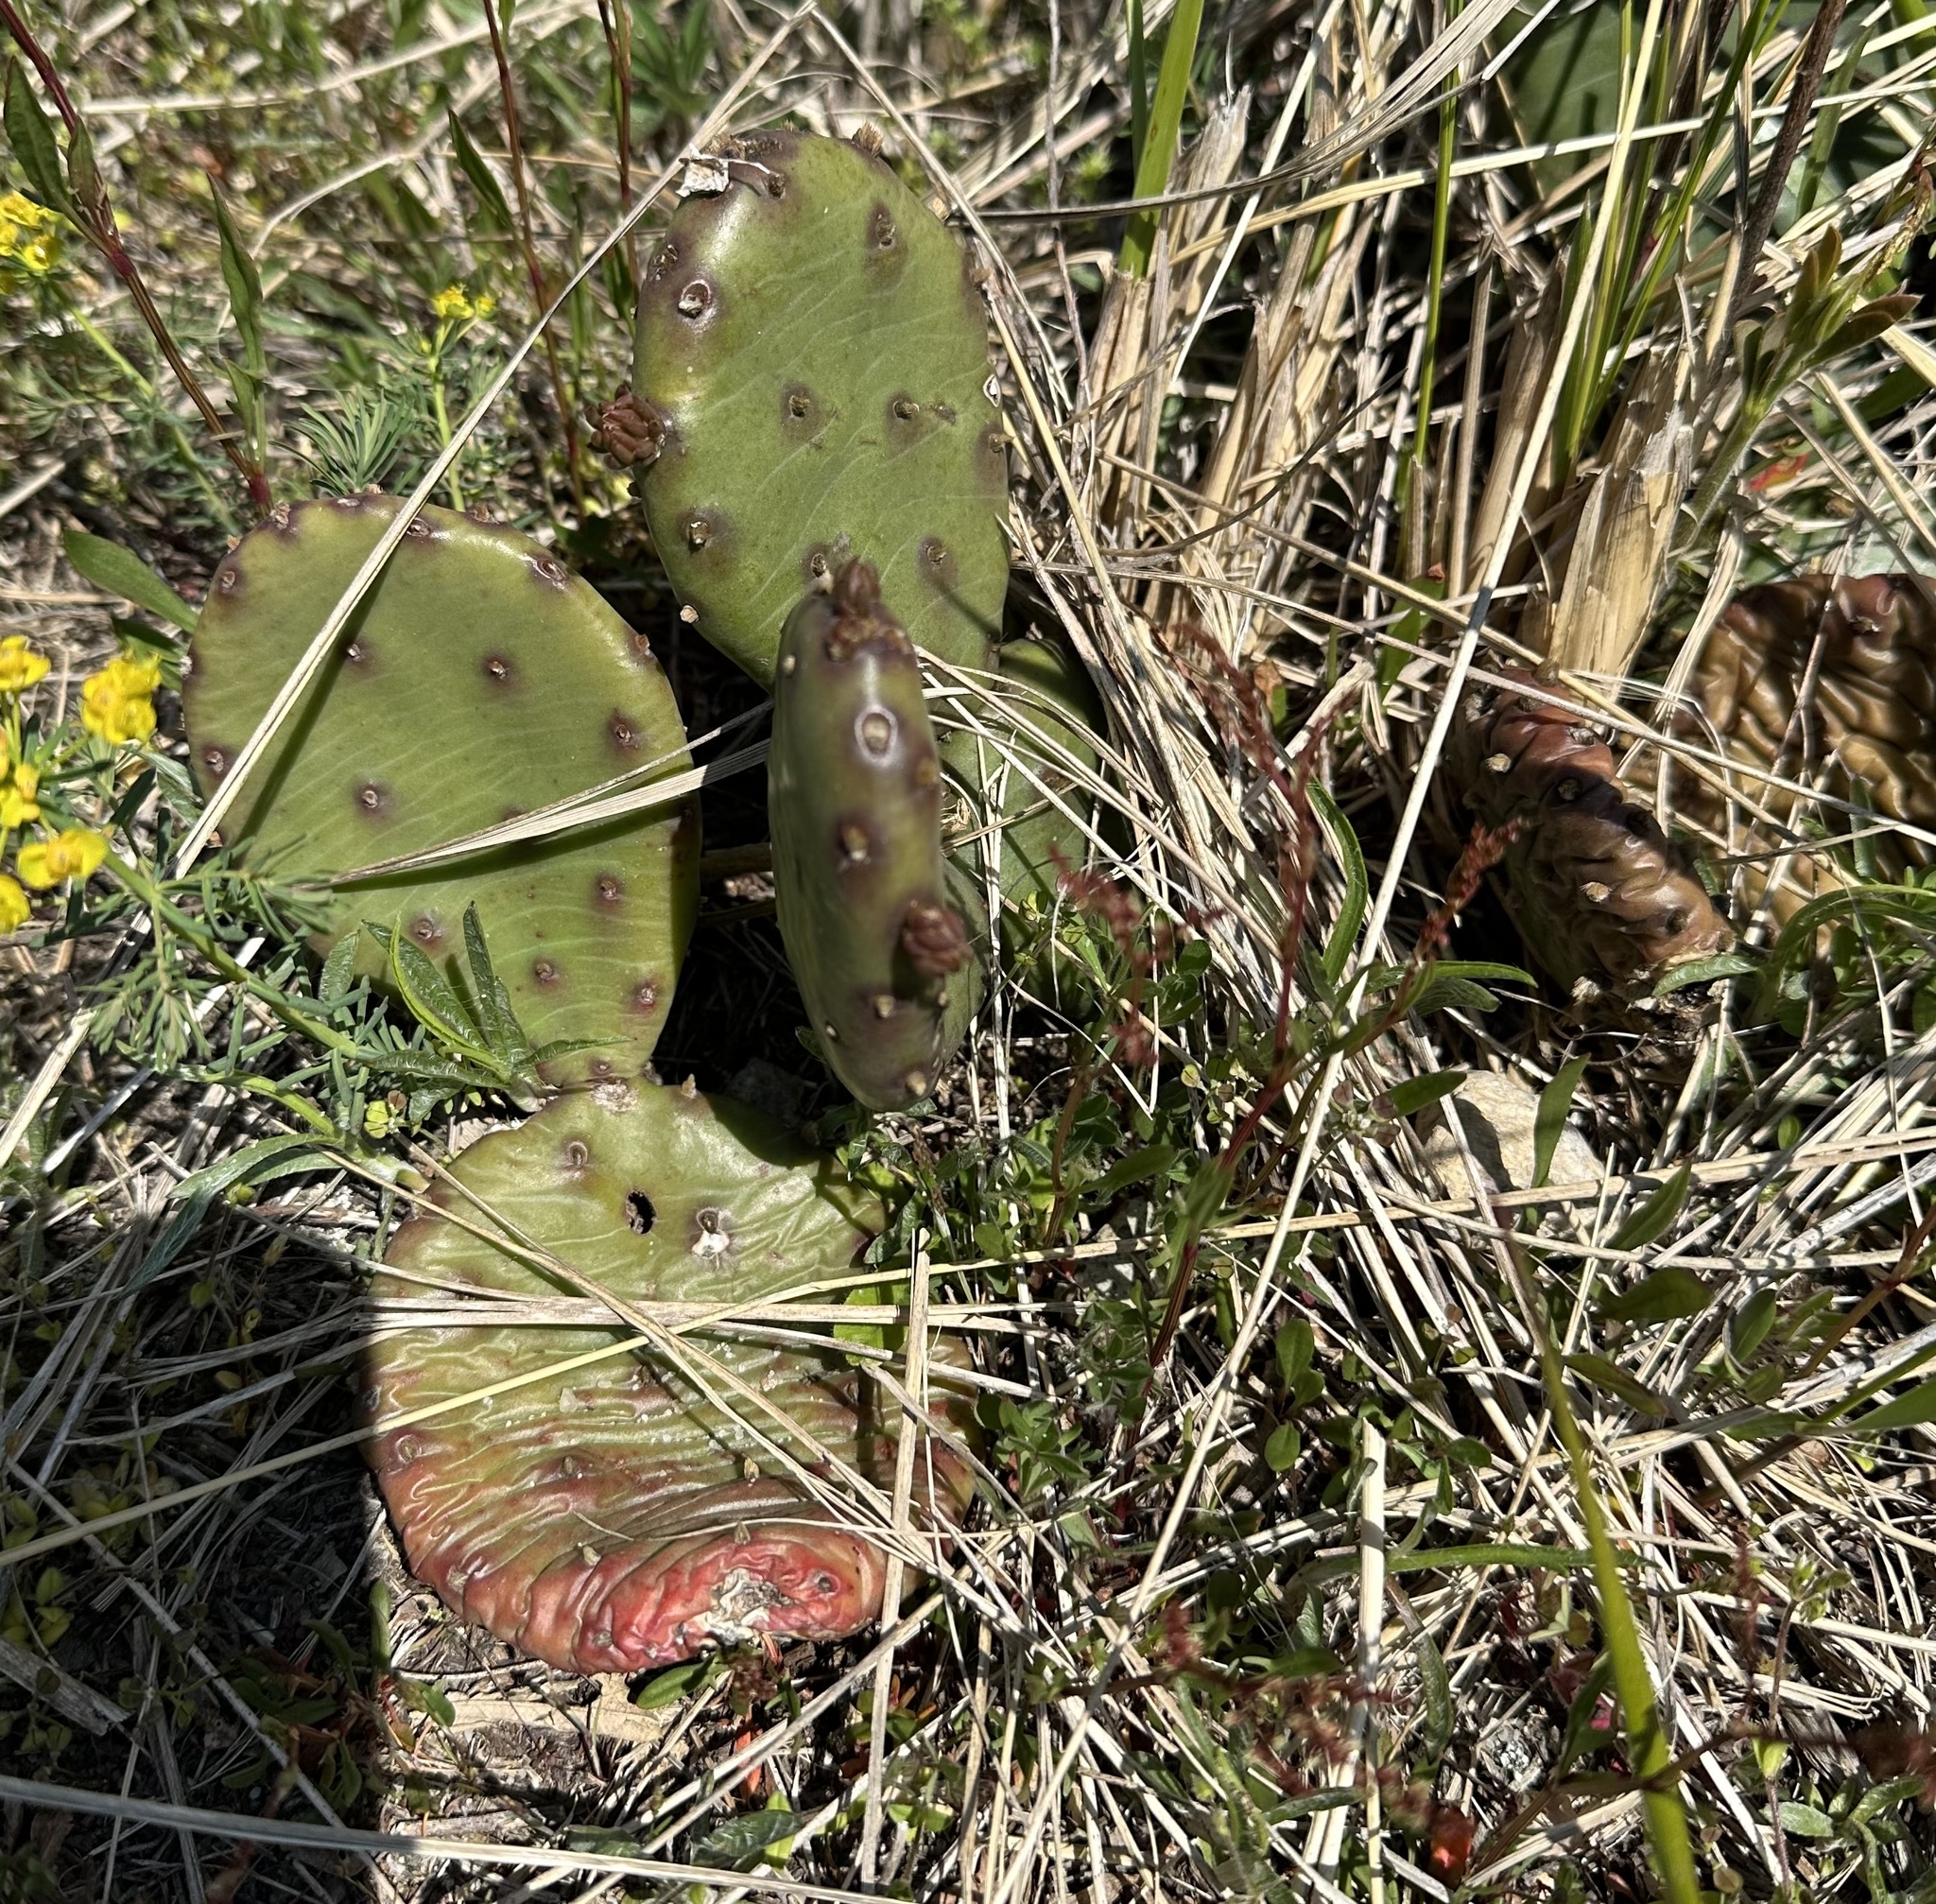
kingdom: Plantae
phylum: Tracheophyta
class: Magnoliopsida
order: Caryophyllales
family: Cactaceae
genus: Opuntia
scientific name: Opuntia humifusa
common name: Eastern prickly-pear
